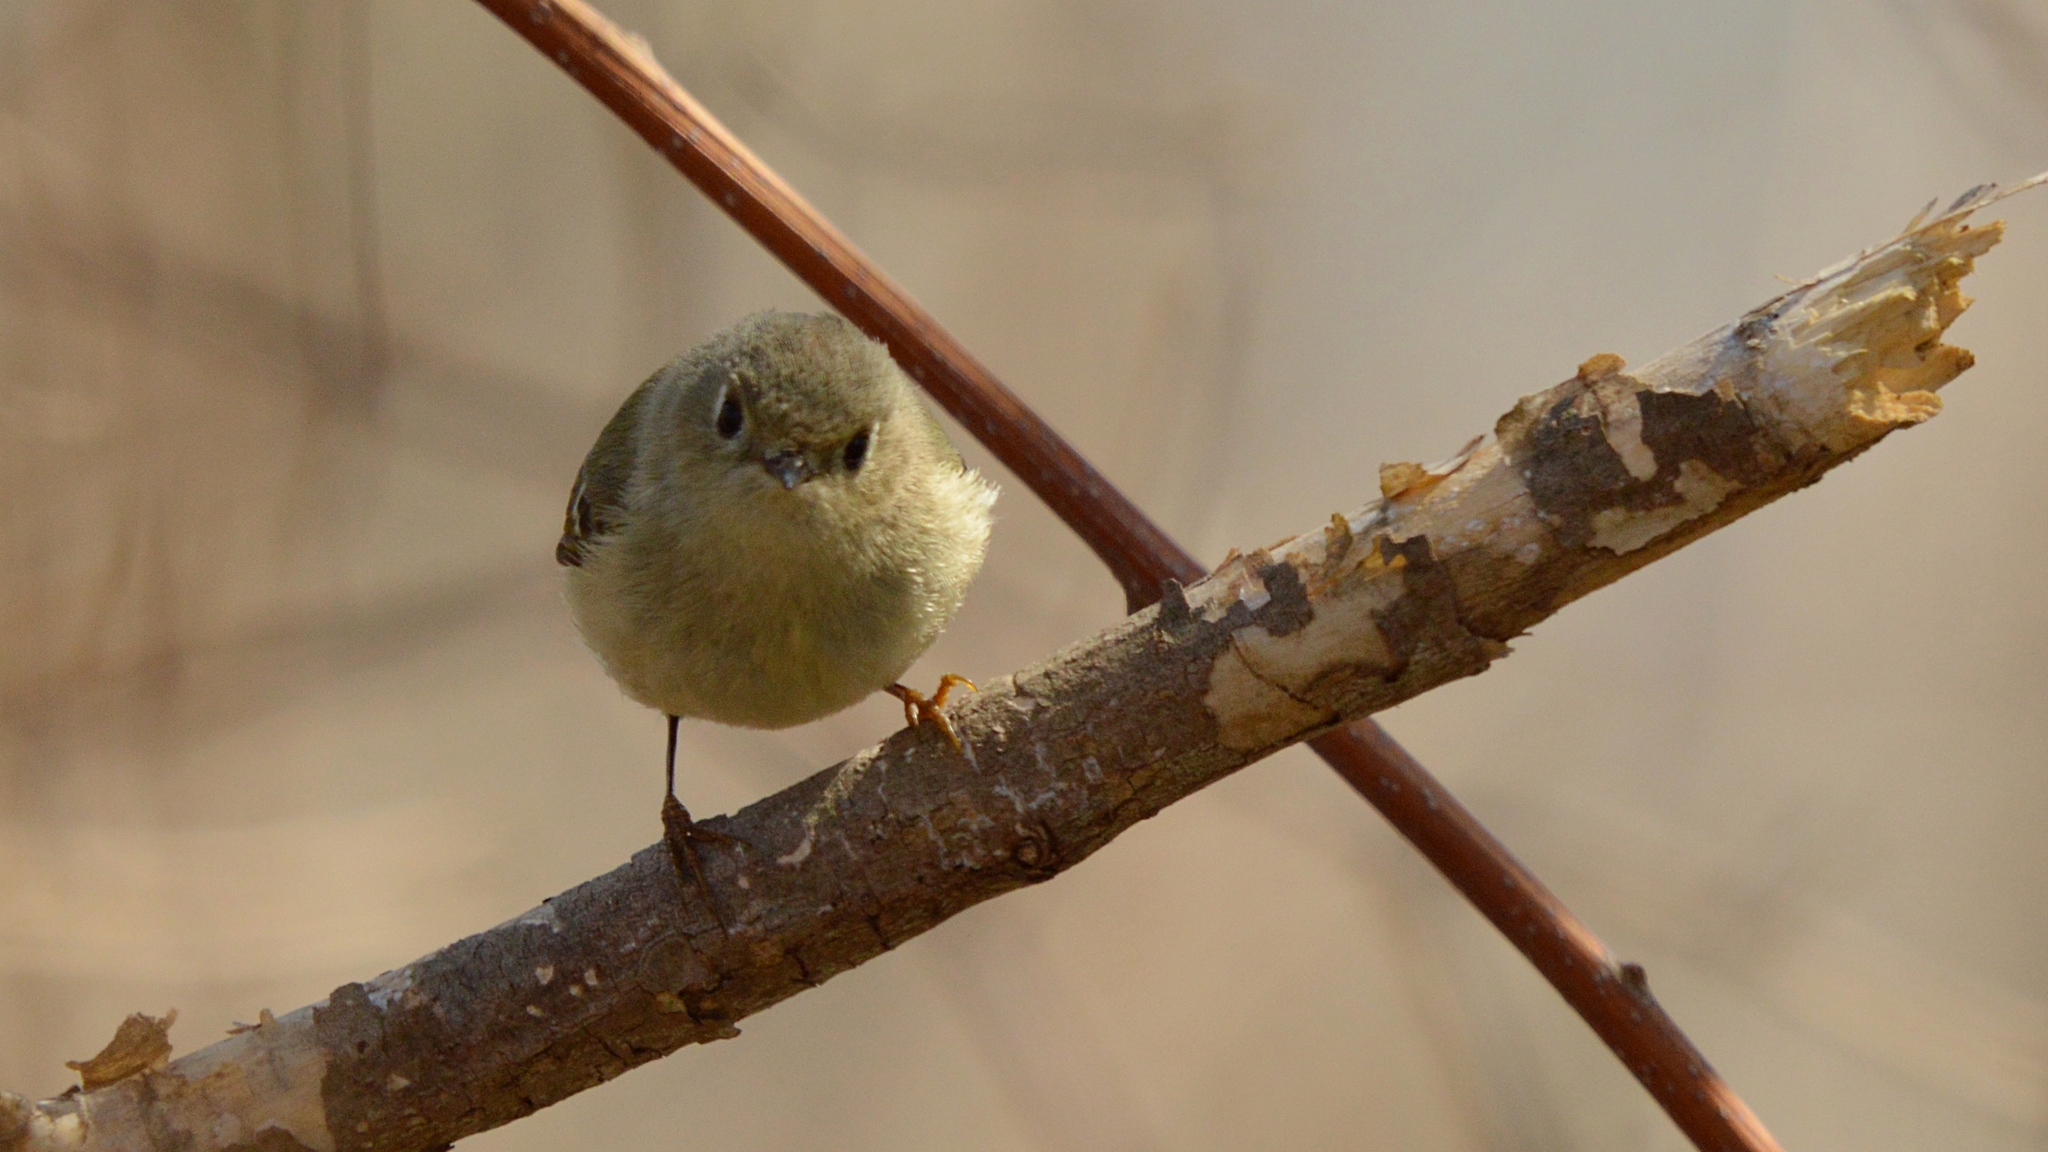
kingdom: Animalia
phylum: Chordata
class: Aves
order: Passeriformes
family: Regulidae
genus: Regulus
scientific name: Regulus calendula
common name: Ruby-crowned kinglet
